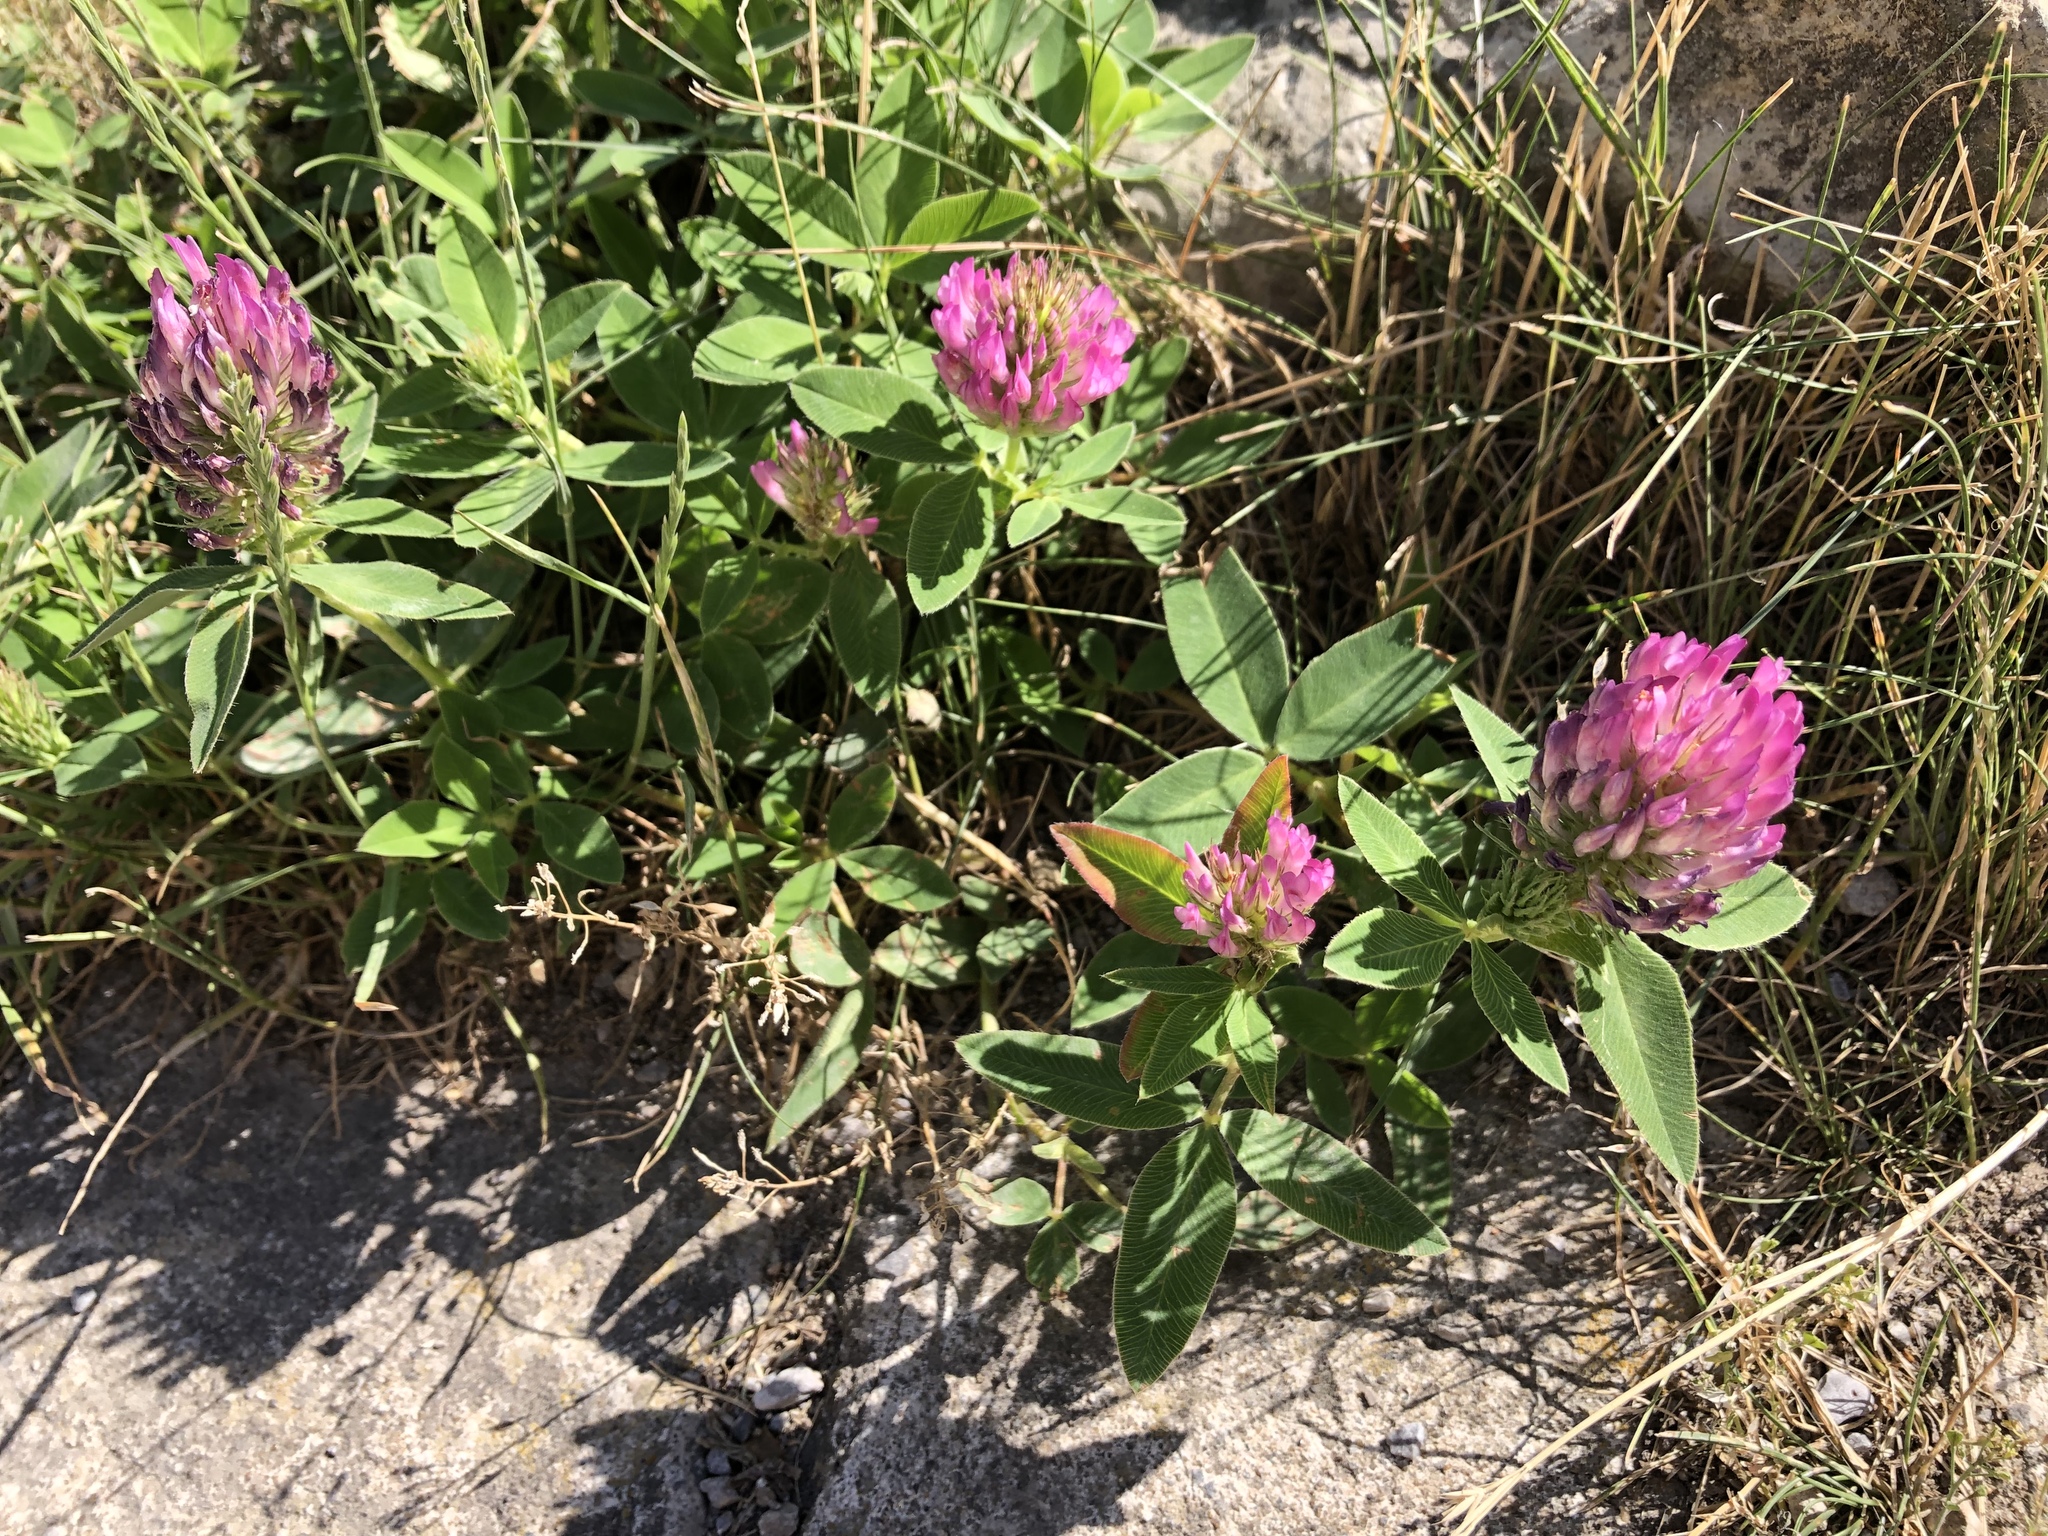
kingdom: Plantae
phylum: Tracheophyta
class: Magnoliopsida
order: Fabales
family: Fabaceae
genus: Trifolium
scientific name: Trifolium medium
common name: Zigzag clover
